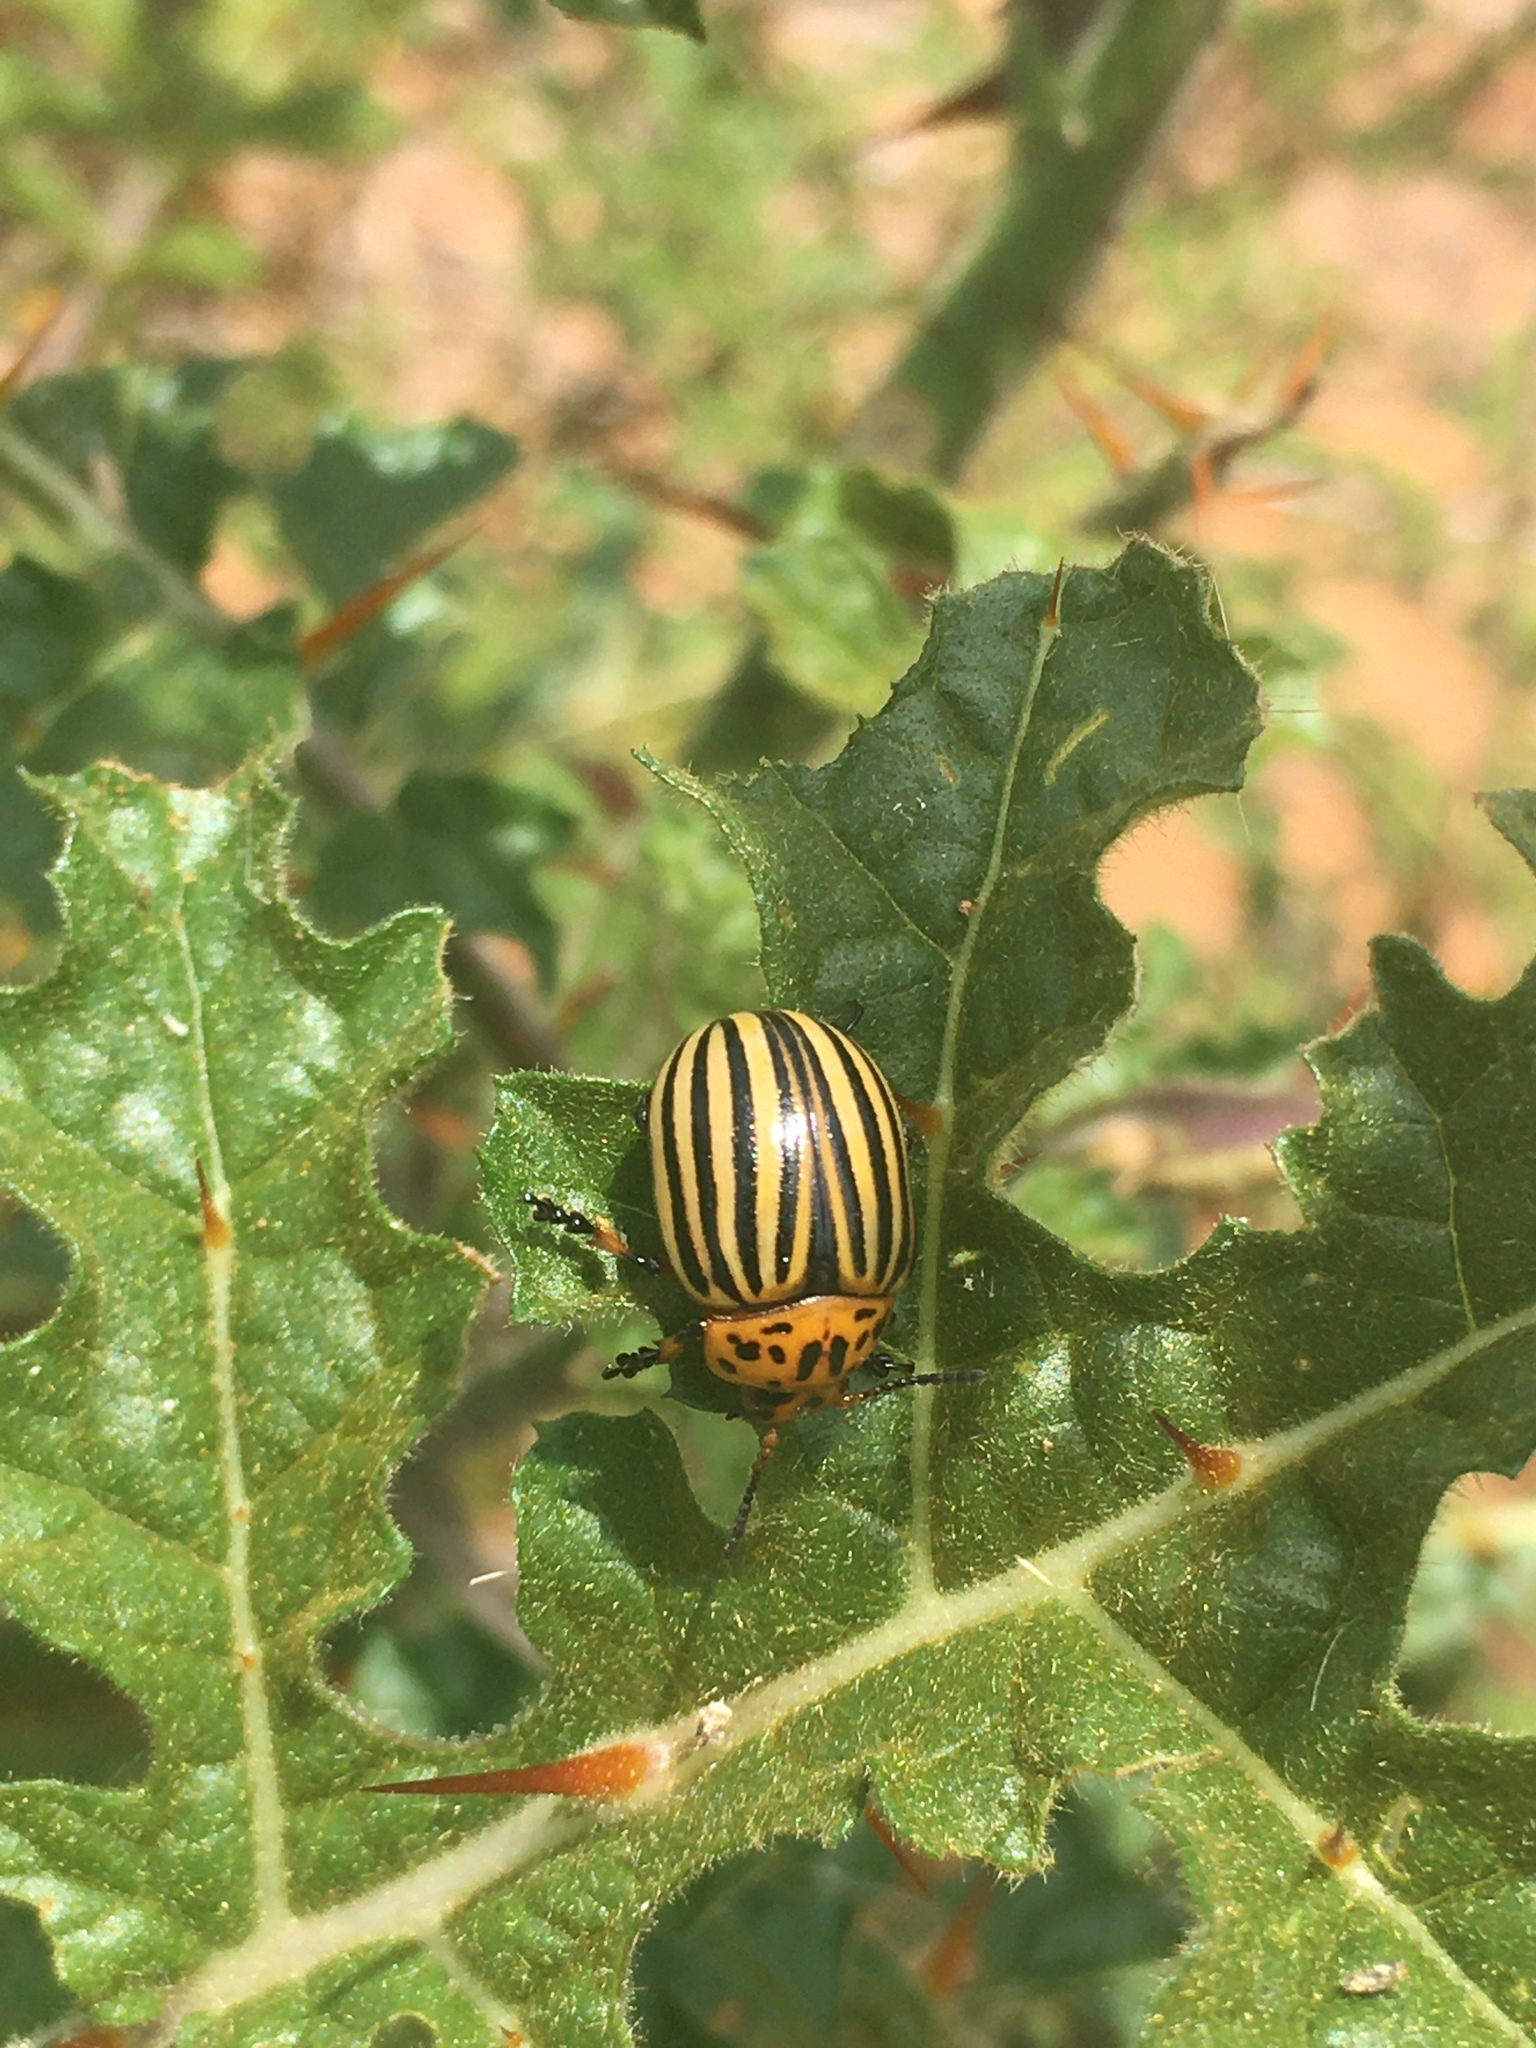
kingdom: Animalia
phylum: Arthropoda
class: Insecta
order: Coleoptera
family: Chrysomelidae
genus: Leptinotarsa
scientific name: Leptinotarsa decemlineata
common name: Colorado potato beetle
